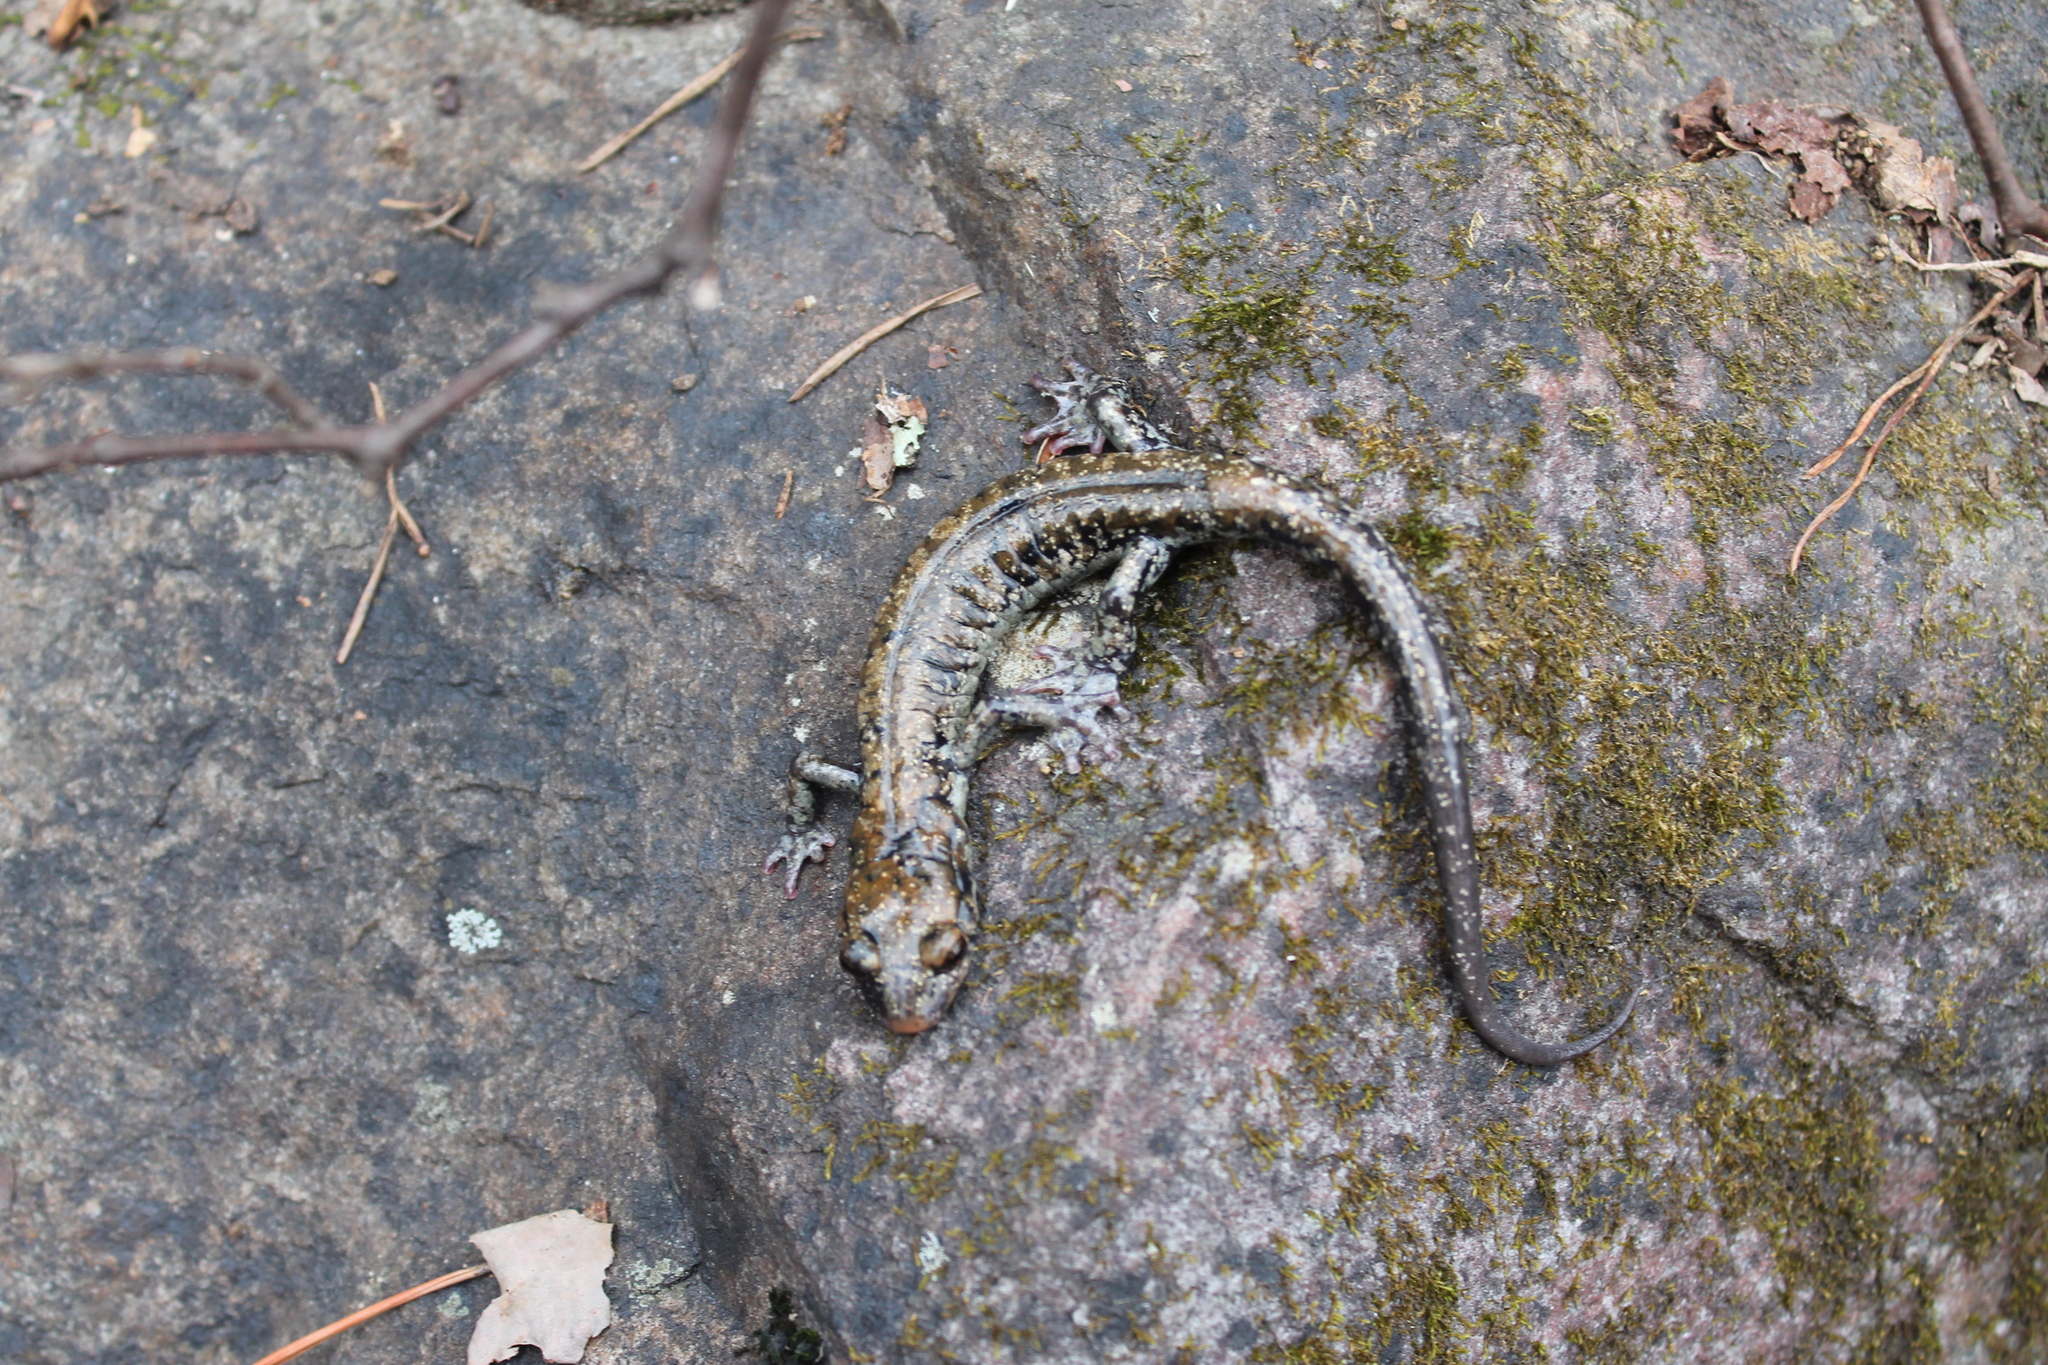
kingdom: Animalia
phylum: Chordata
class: Amphibia
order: Caudata
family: Plethodontidae
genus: Plethodon
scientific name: Plethodon petraeus
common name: Pigeon mountain salamander
